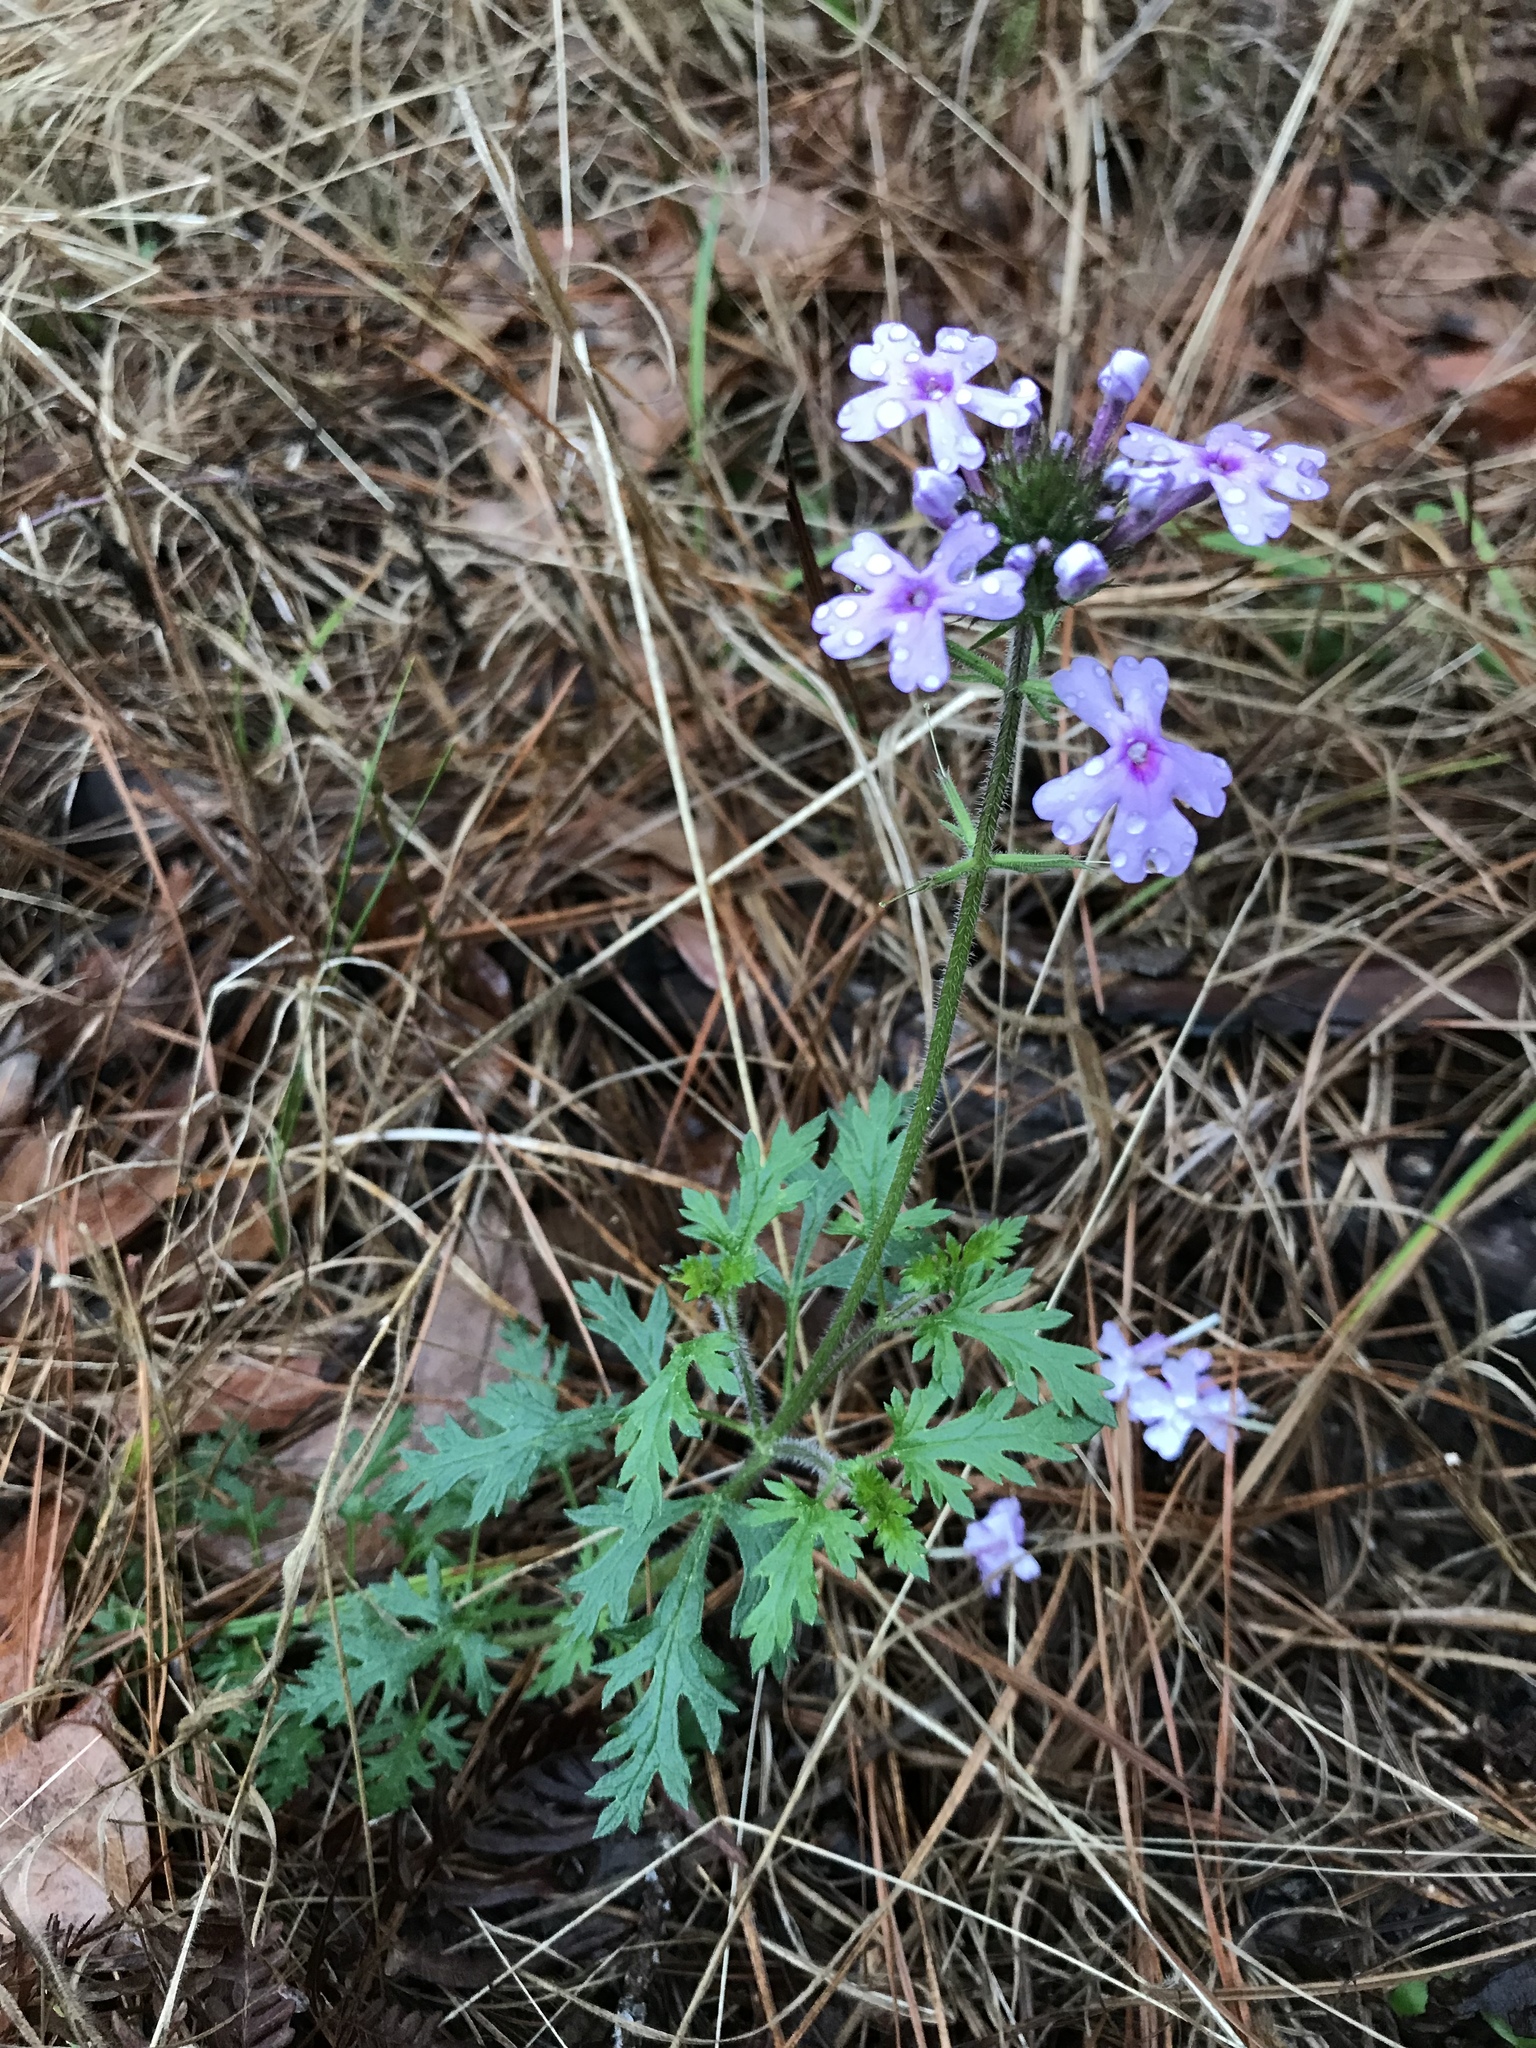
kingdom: Plantae
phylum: Tracheophyta
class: Magnoliopsida
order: Lamiales
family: Verbenaceae
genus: Verbena
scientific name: Verbena canadensis
